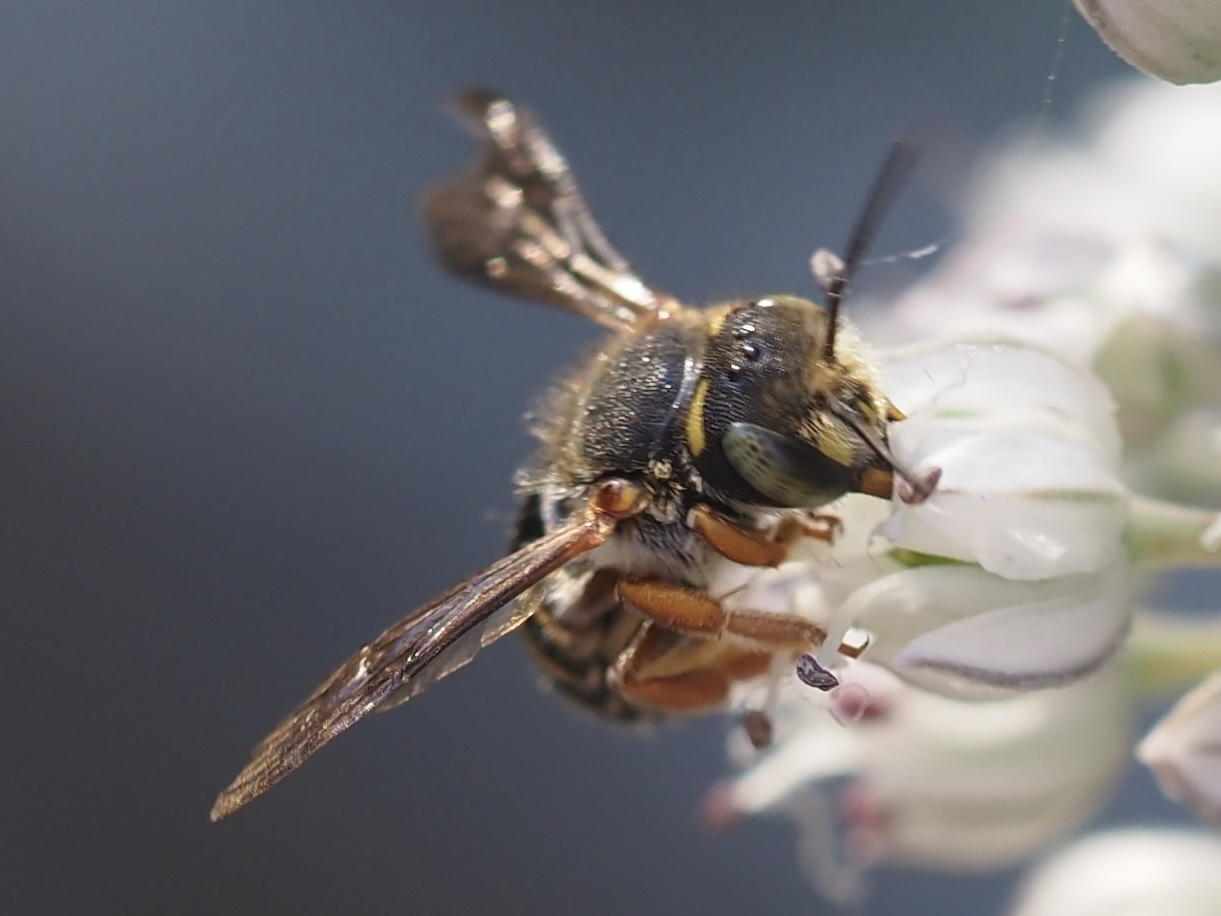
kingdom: Animalia
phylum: Arthropoda
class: Insecta
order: Hymenoptera
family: Megachilidae
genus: Anthidium
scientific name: Anthidium oblongatum
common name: Oblong wool carder bee
